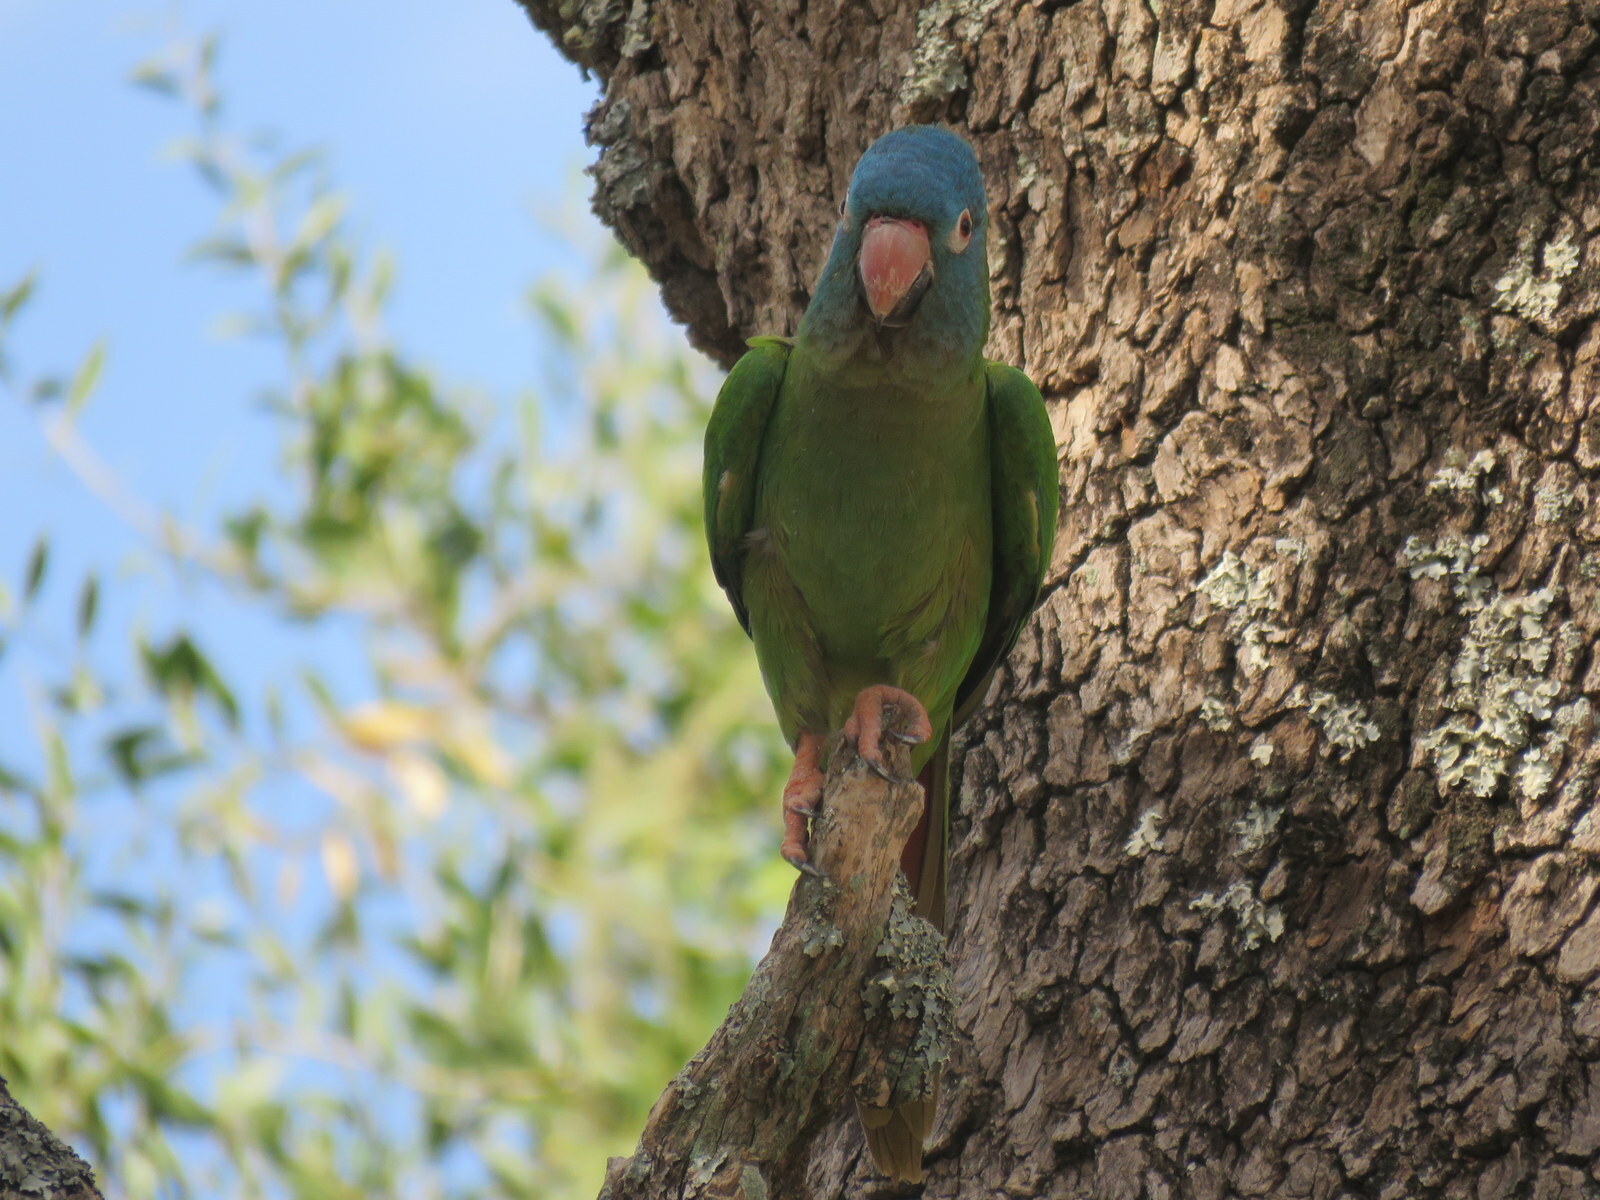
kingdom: Animalia
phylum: Chordata
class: Aves
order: Psittaciformes
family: Psittacidae
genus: Aratinga
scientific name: Aratinga acuticaudata
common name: Blue-crowned parakeet
